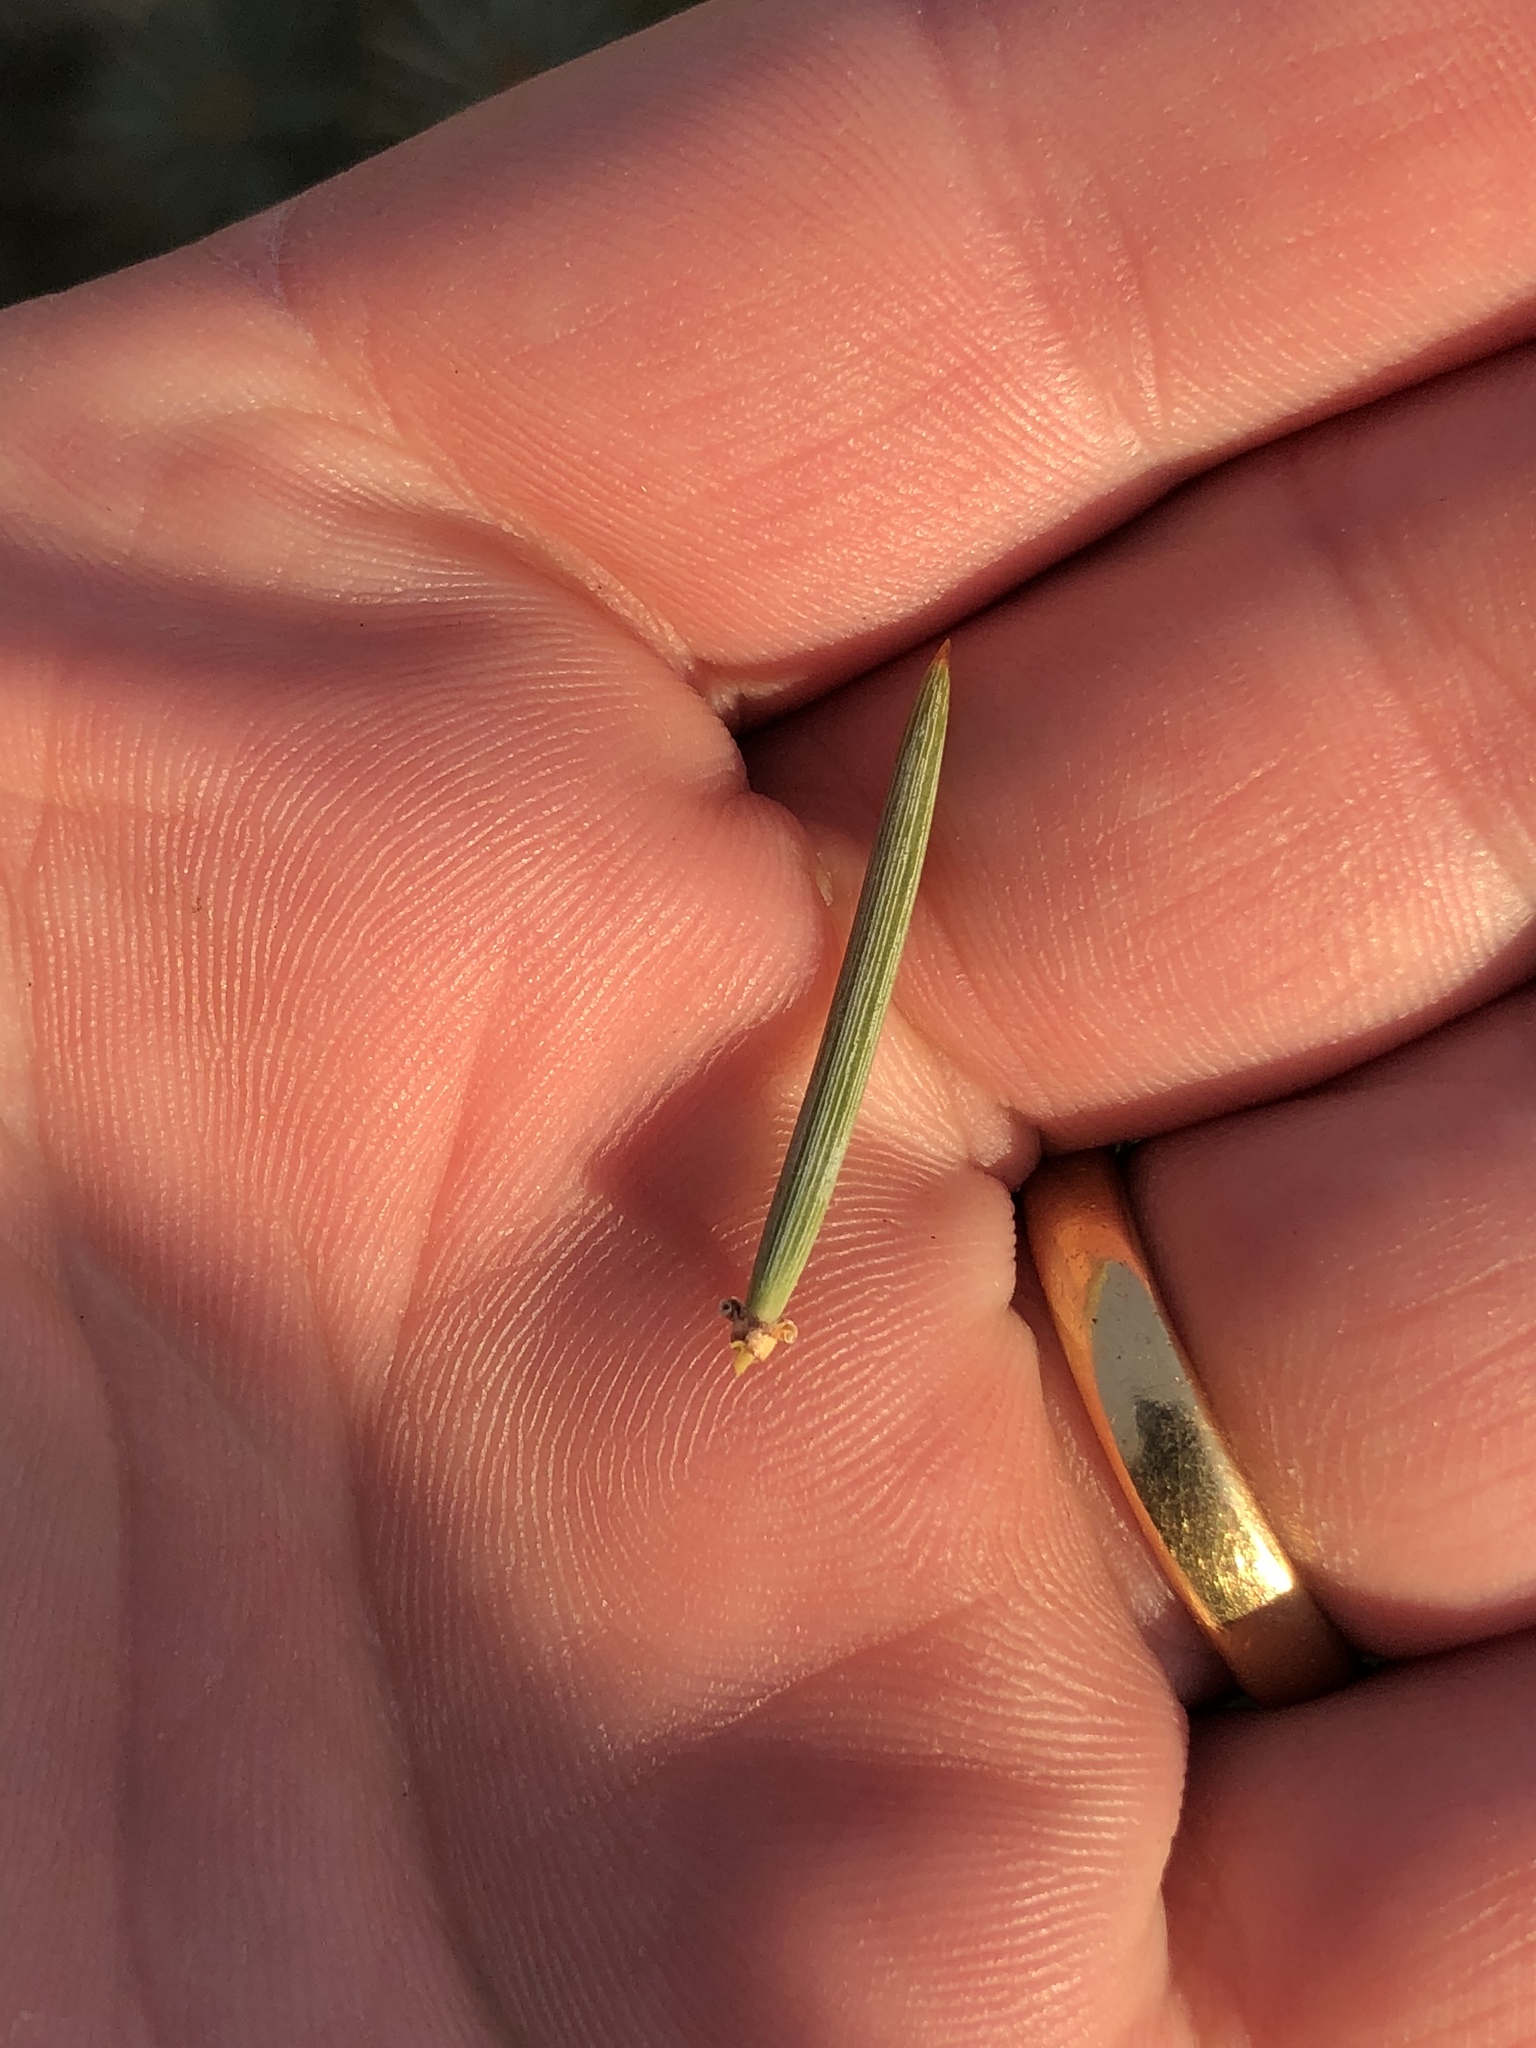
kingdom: Plantae
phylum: Tracheophyta
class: Pinopsida
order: Pinales
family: Pinaceae
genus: Pinus
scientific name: Pinus monophylla
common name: One-leaved nut pine
